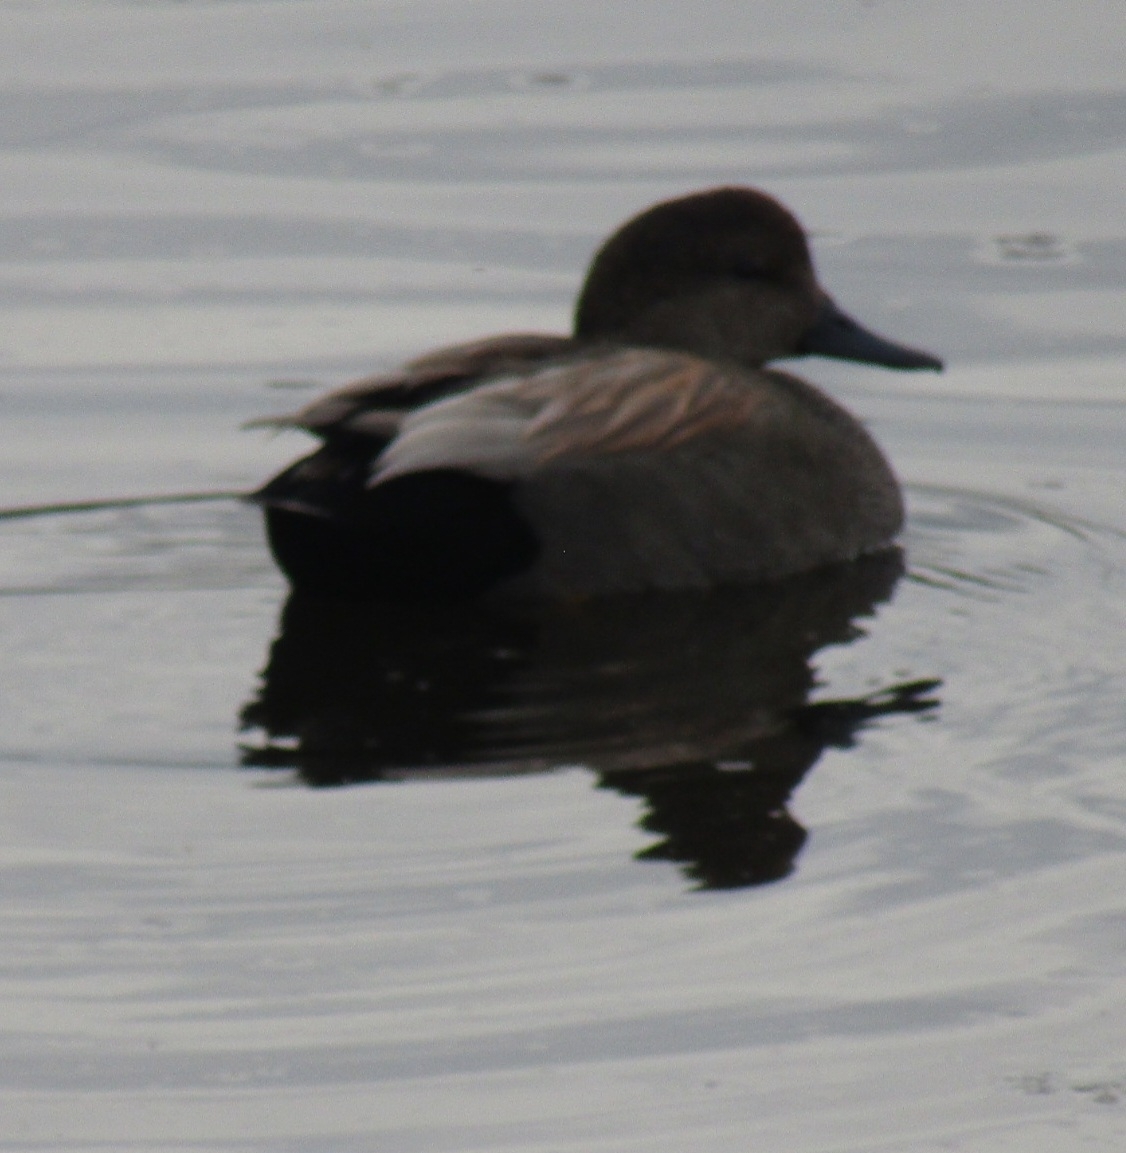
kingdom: Animalia
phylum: Chordata
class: Aves
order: Anseriformes
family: Anatidae
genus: Mareca
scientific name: Mareca strepera
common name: Gadwall
